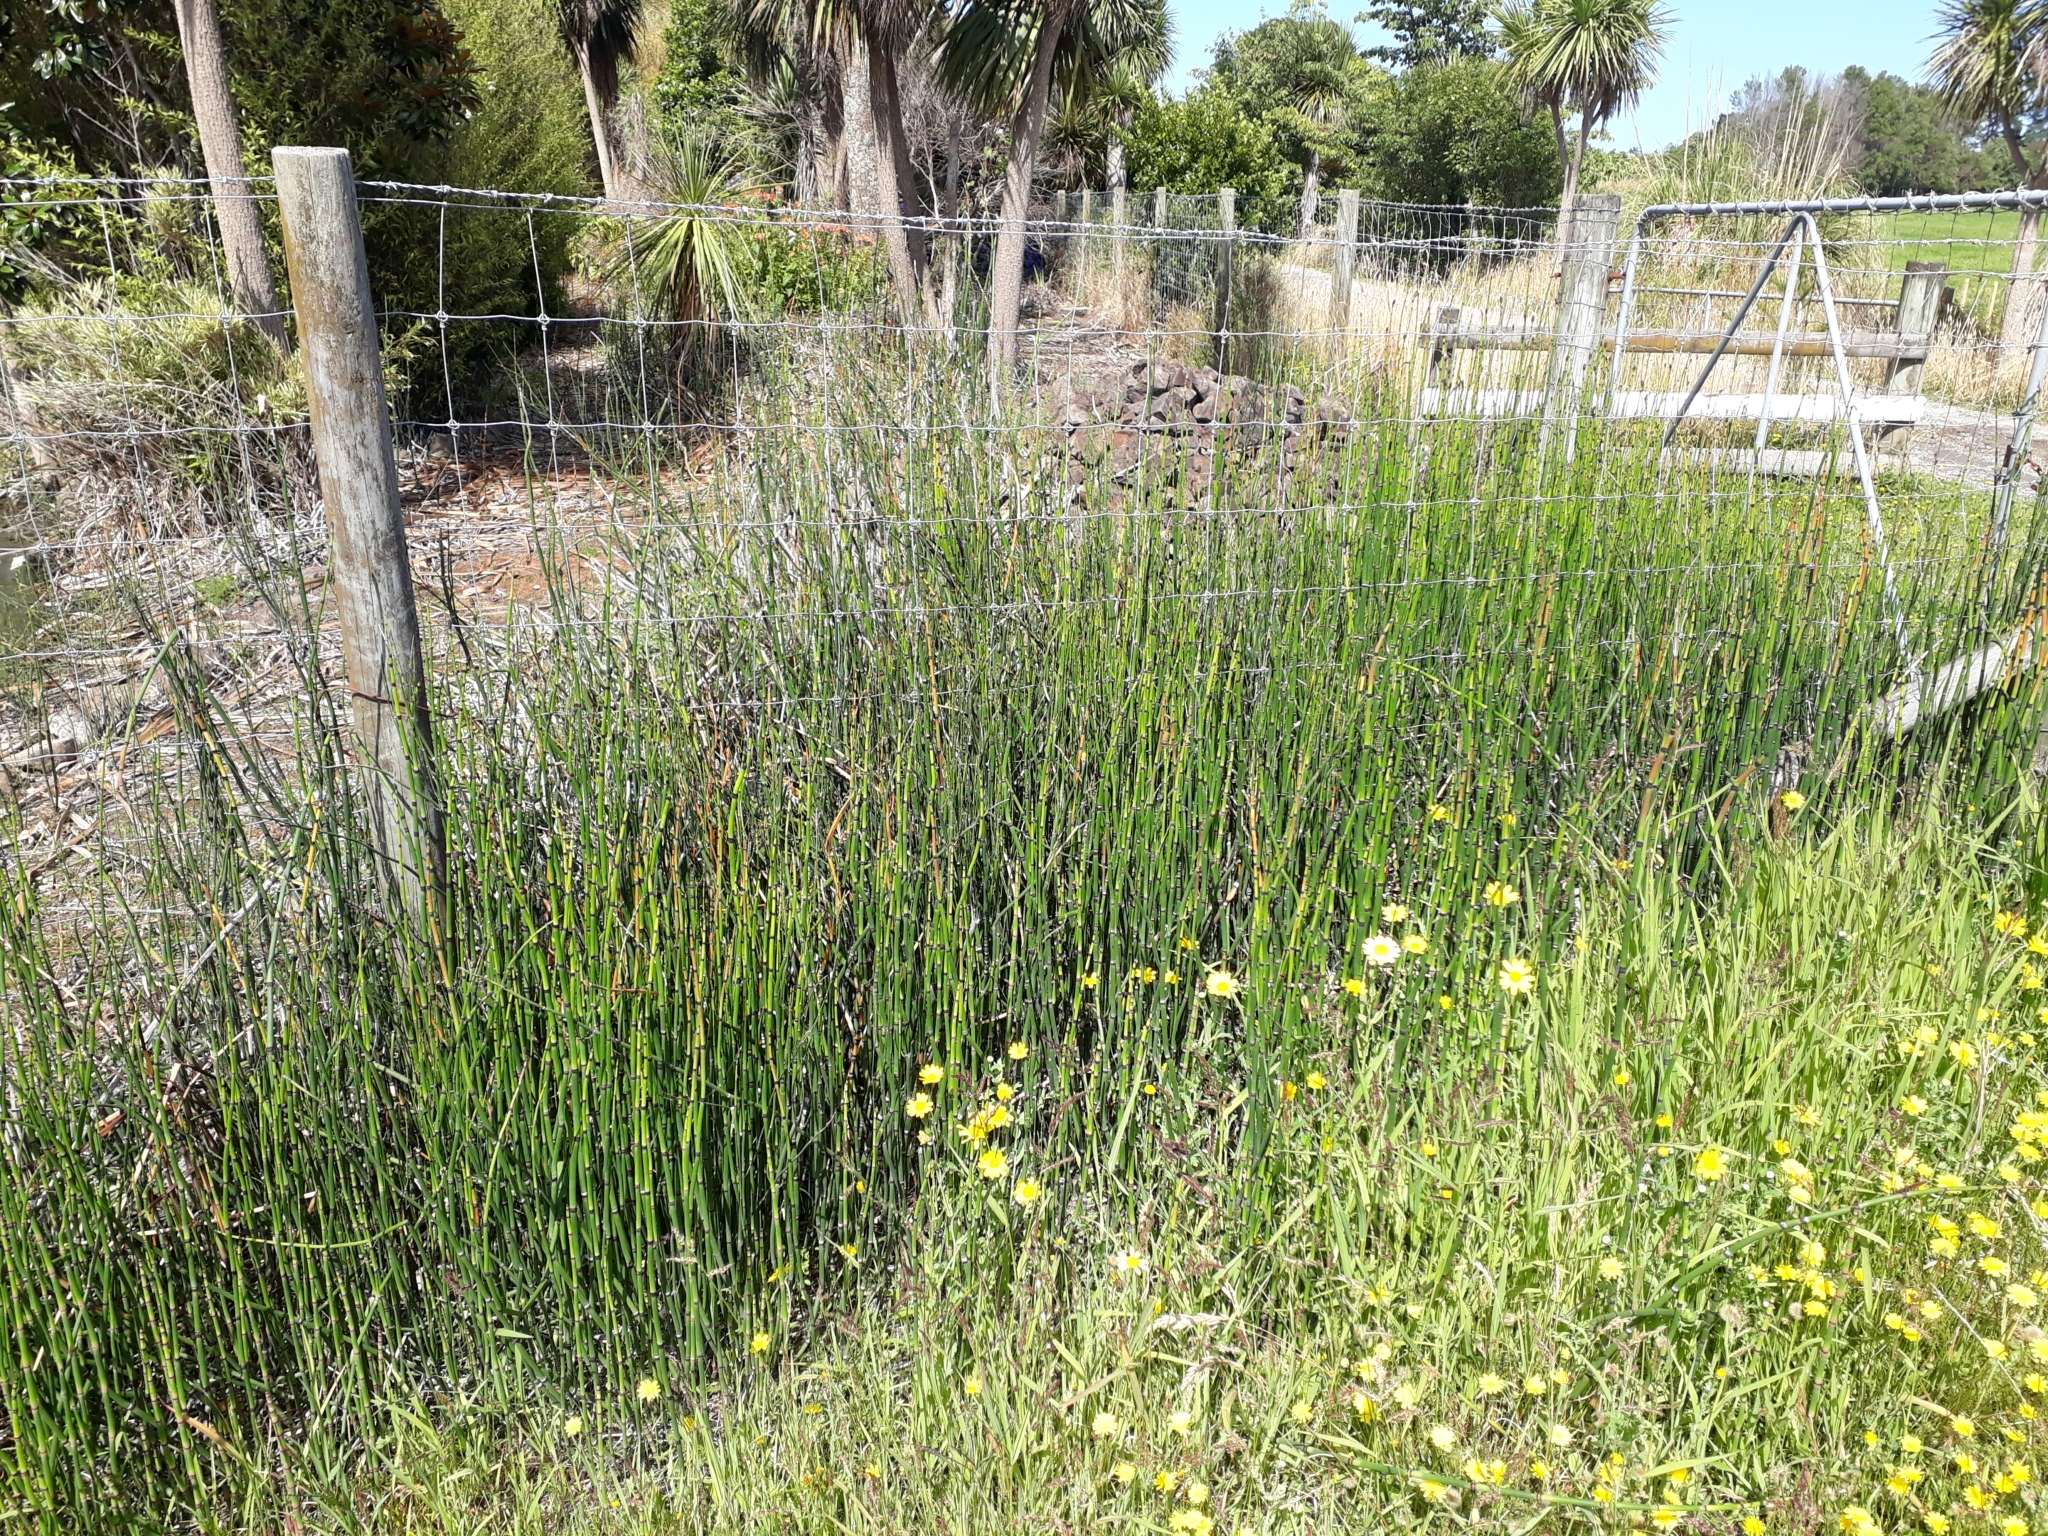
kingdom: Plantae
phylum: Tracheophyta
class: Polypodiopsida
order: Equisetales
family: Equisetaceae
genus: Equisetum
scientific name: Equisetum hyemale
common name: Rough horsetail
